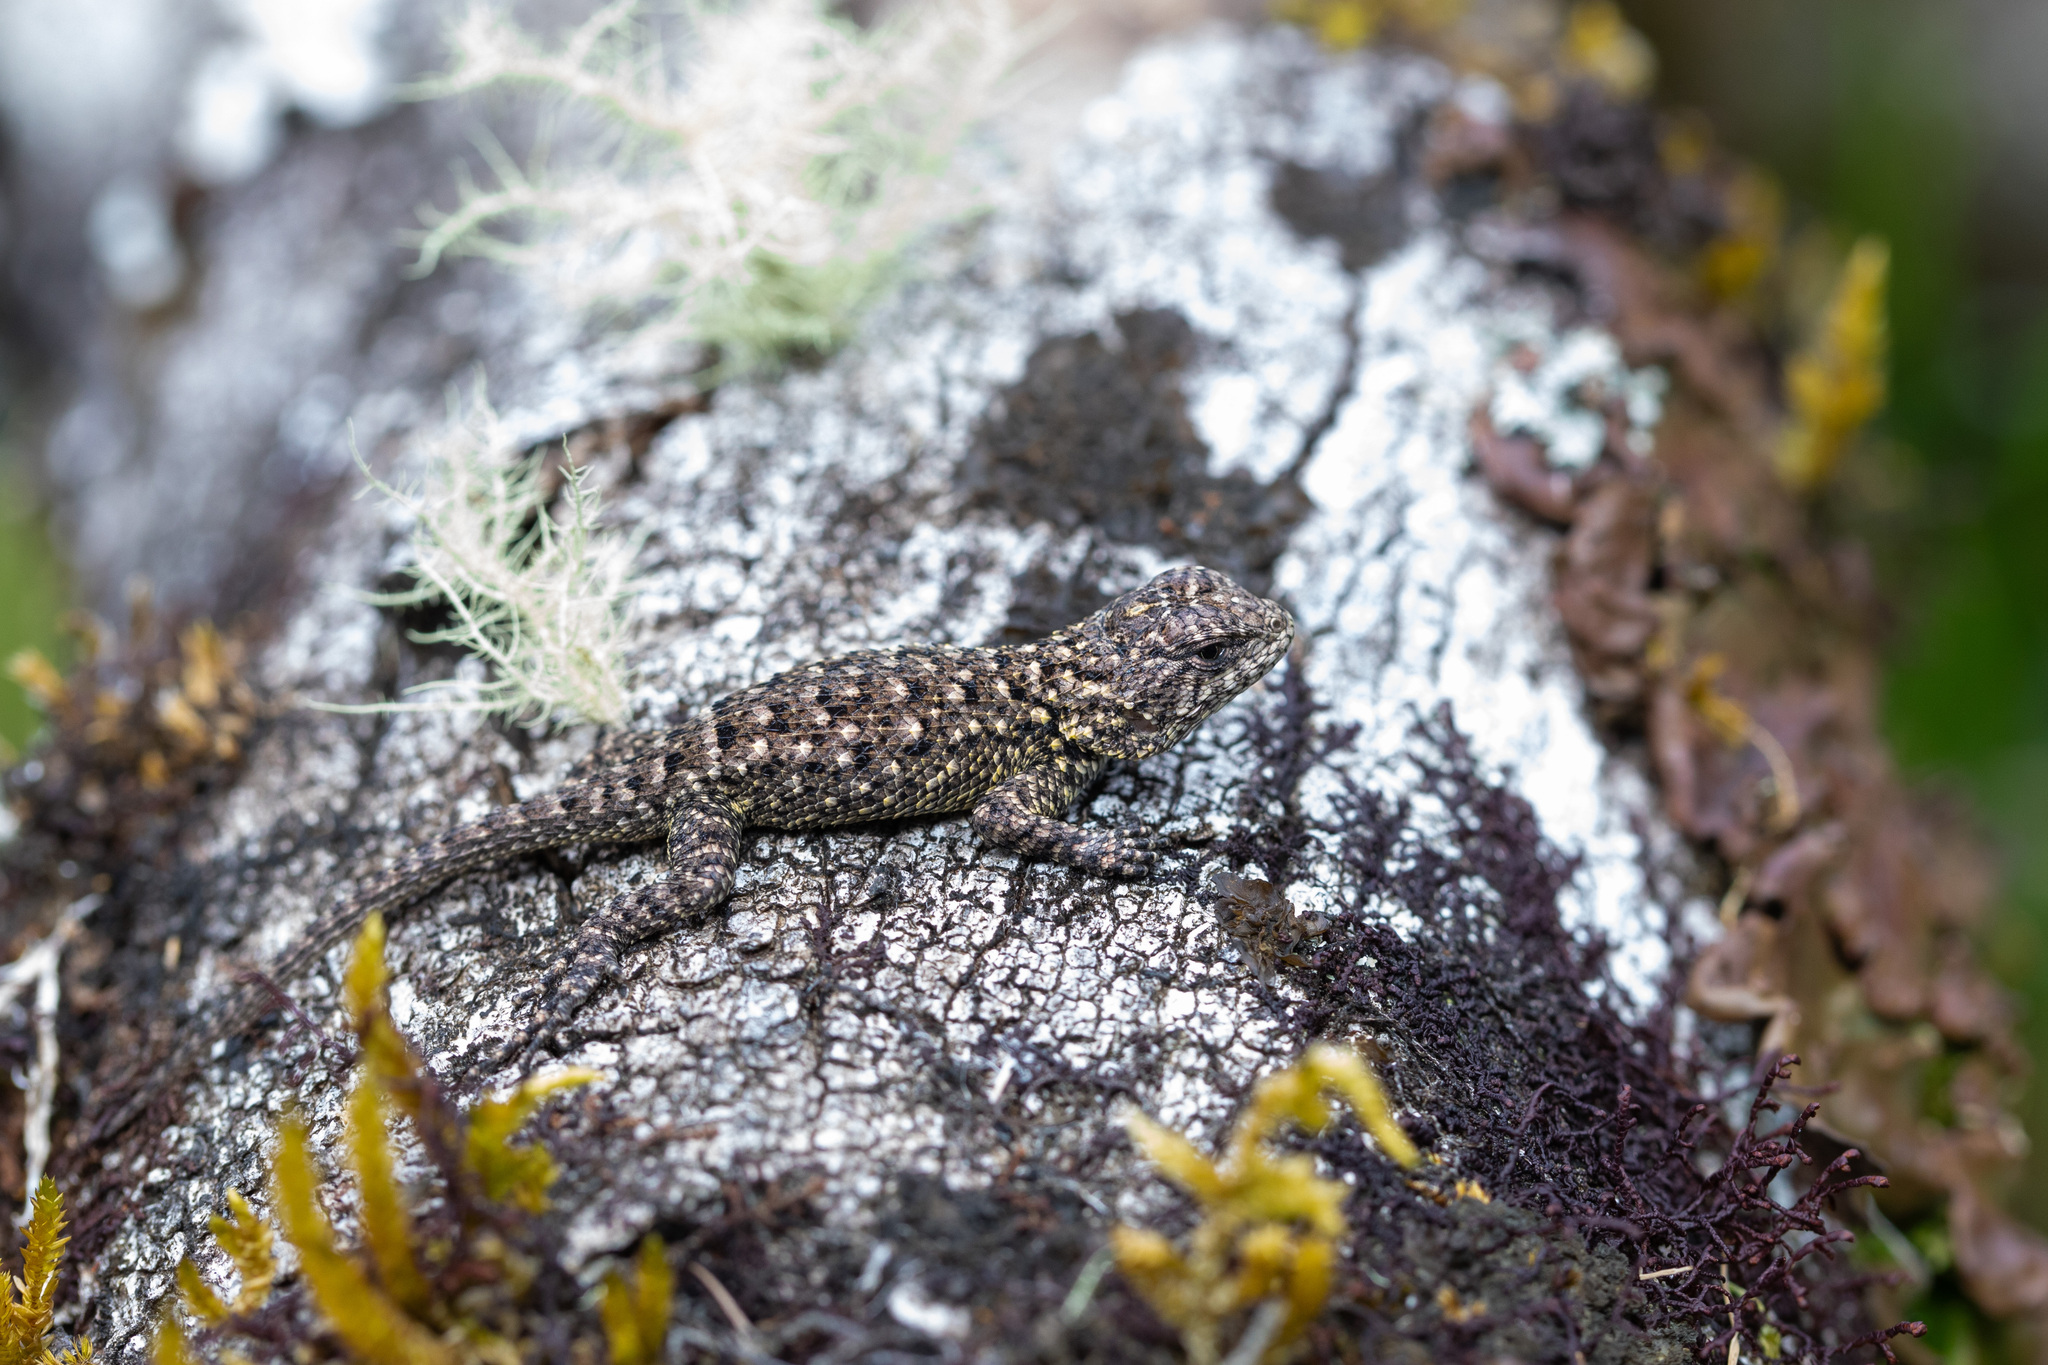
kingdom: Animalia
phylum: Chordata
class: Squamata
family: Phrynosomatidae
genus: Sceloporus
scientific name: Sceloporus malachiticus
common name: Green spiny lizard
